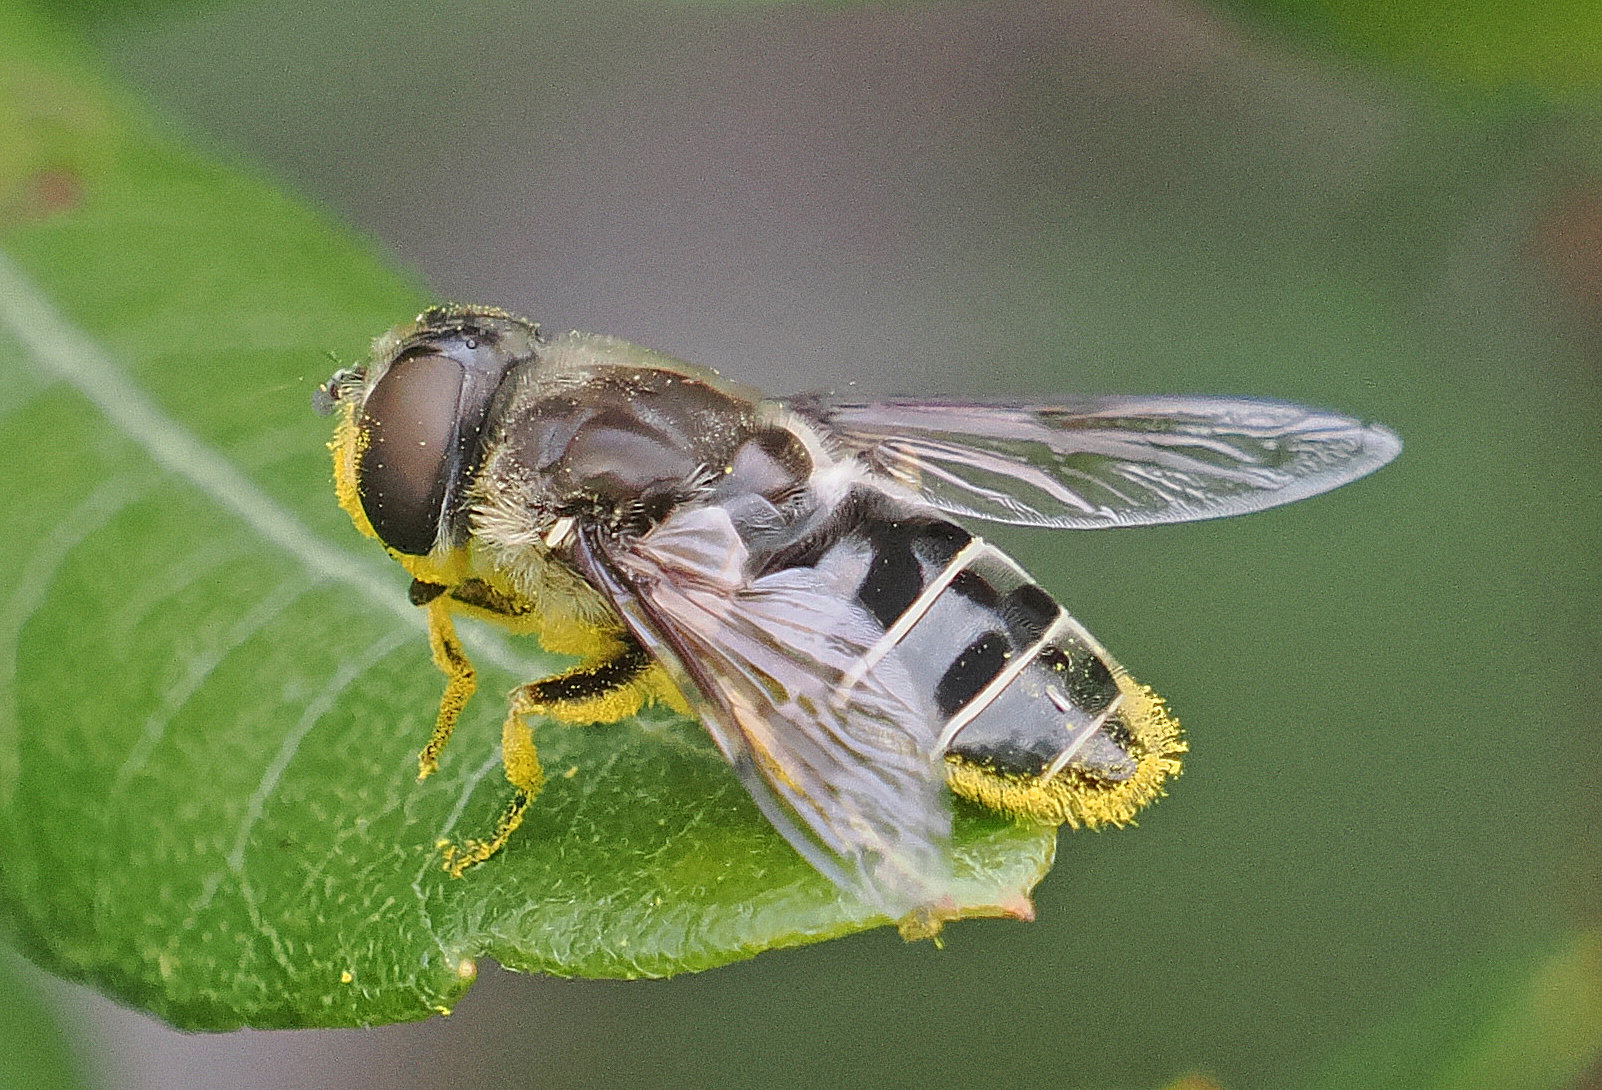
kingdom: Animalia
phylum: Arthropoda
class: Insecta
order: Diptera
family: Syrphidae
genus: Eristalis
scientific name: Eristalis dimidiata
